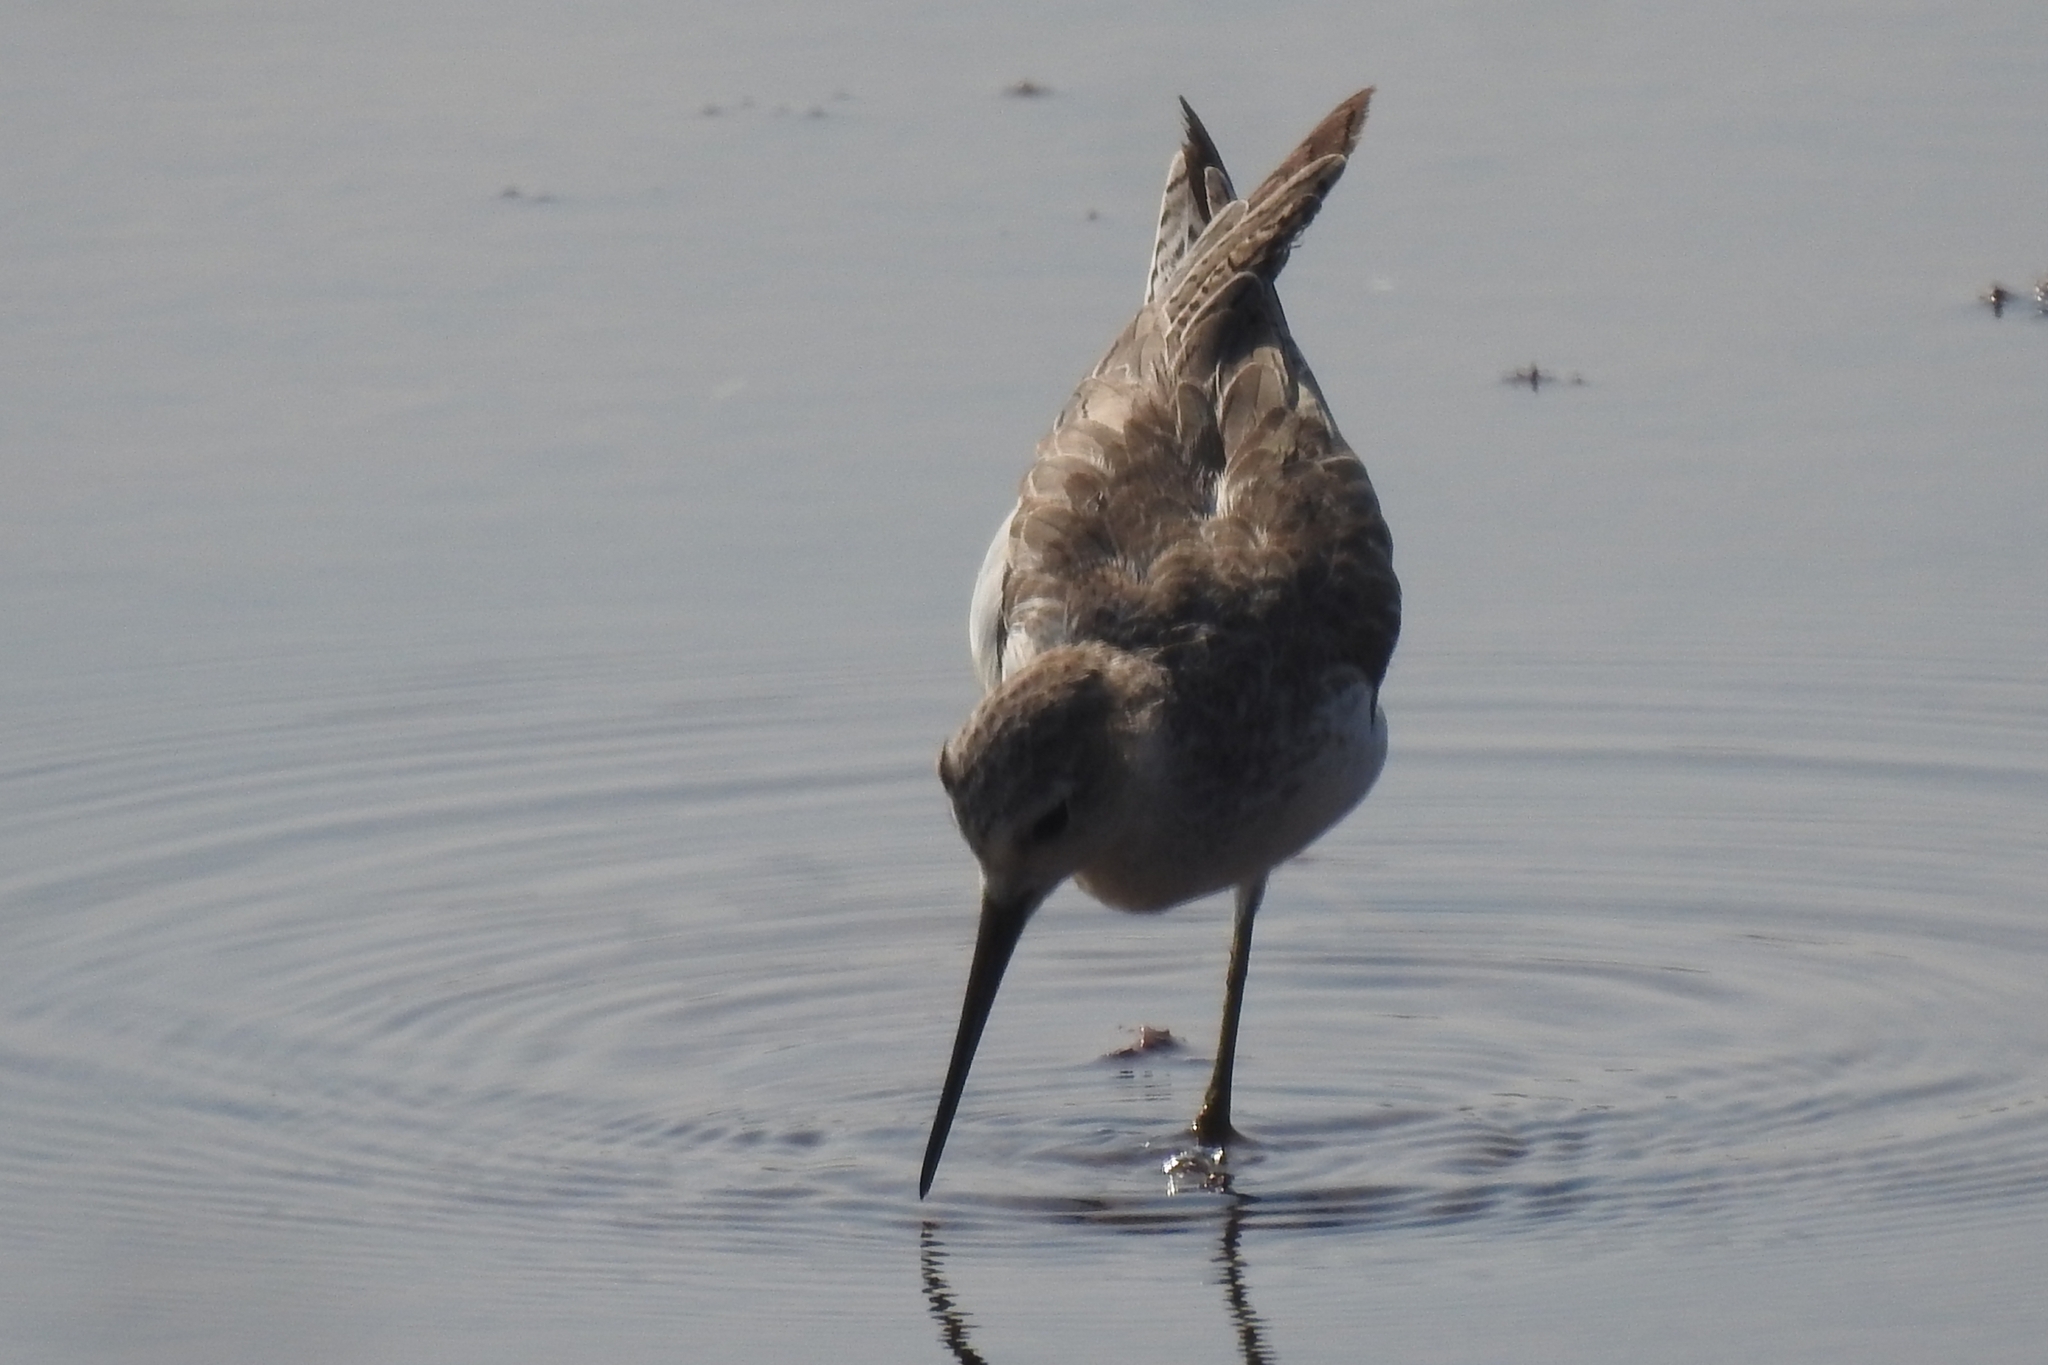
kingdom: Animalia
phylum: Chordata
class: Aves
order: Charadriiformes
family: Scolopacidae
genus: Tringa
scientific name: Tringa stagnatilis
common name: Marsh sandpiper
